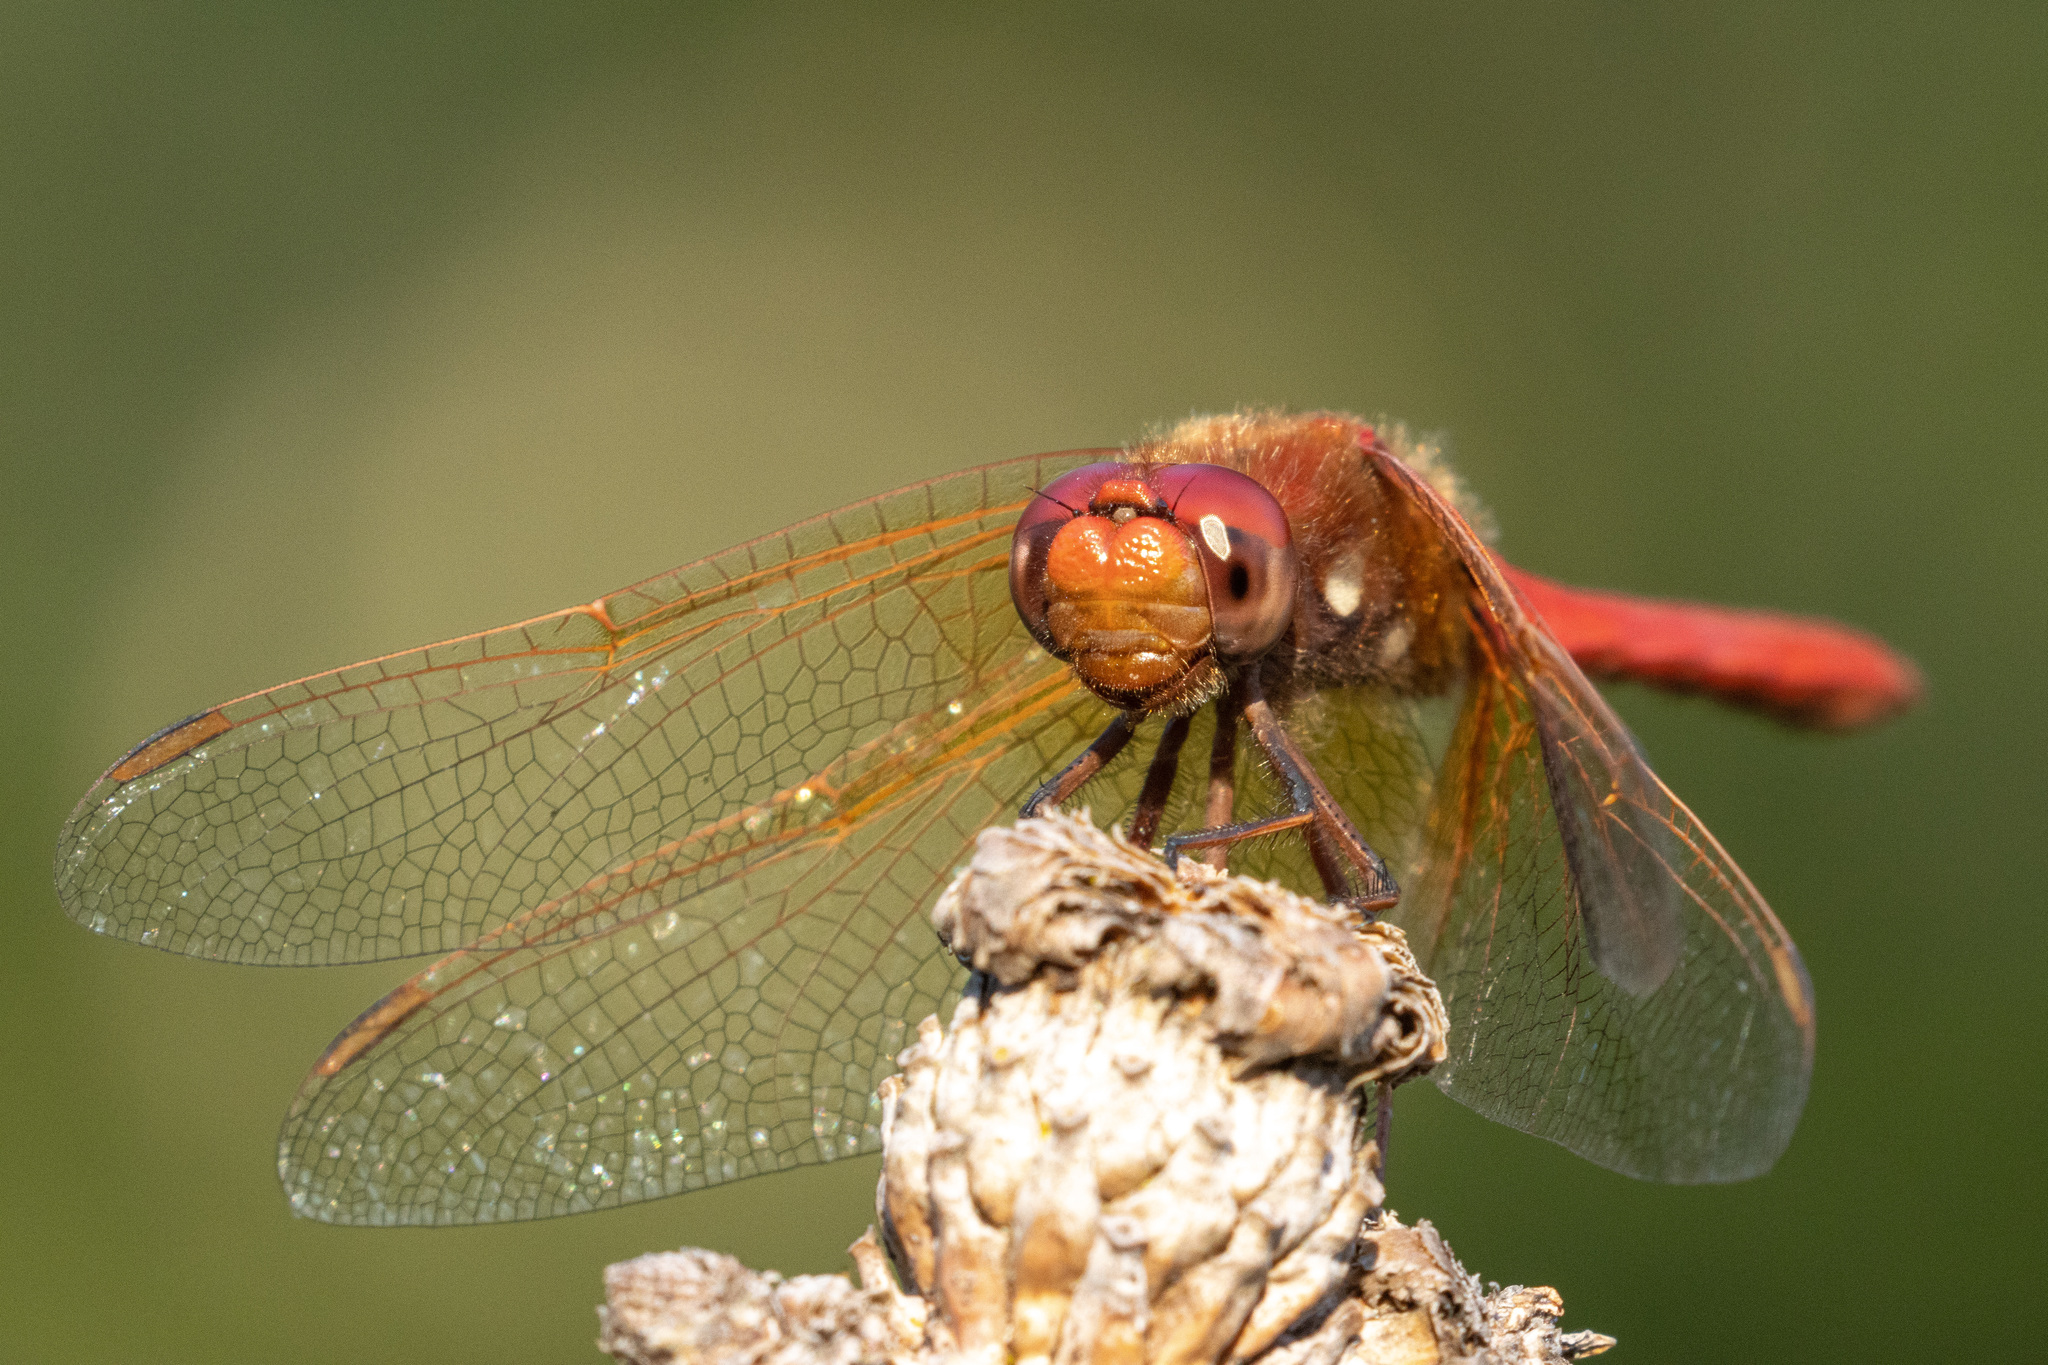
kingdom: Animalia
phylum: Arthropoda
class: Insecta
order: Odonata
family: Libellulidae
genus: Sympetrum
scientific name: Sympetrum illotum
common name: Cardinal meadowhawk
